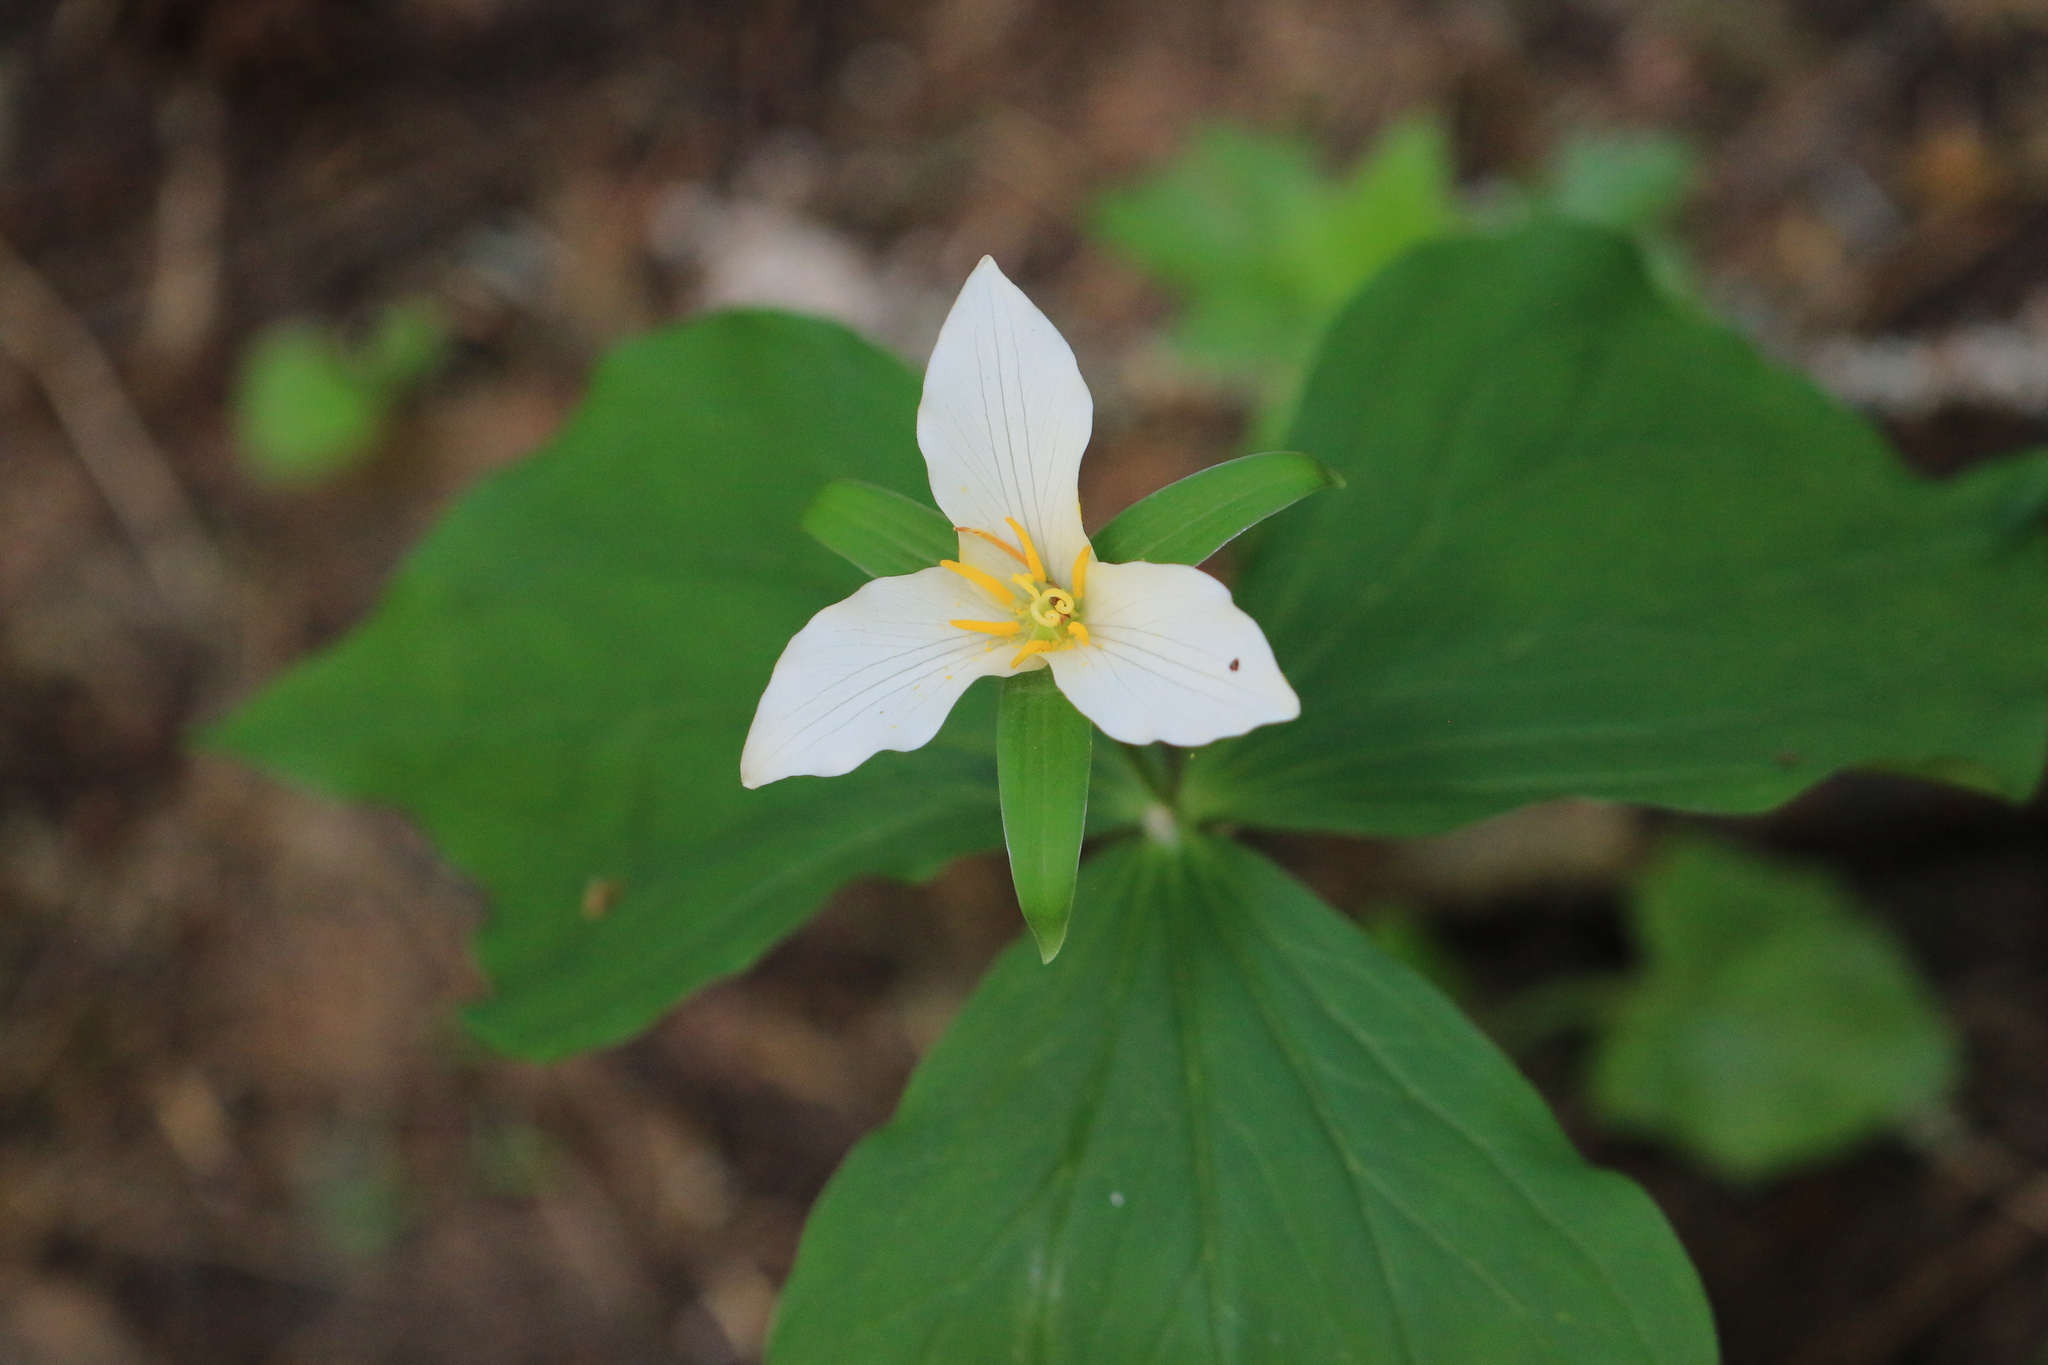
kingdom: Plantae
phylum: Tracheophyta
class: Liliopsida
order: Liliales
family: Melanthiaceae
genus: Trillium
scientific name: Trillium ovatum
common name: Pacific trillium
